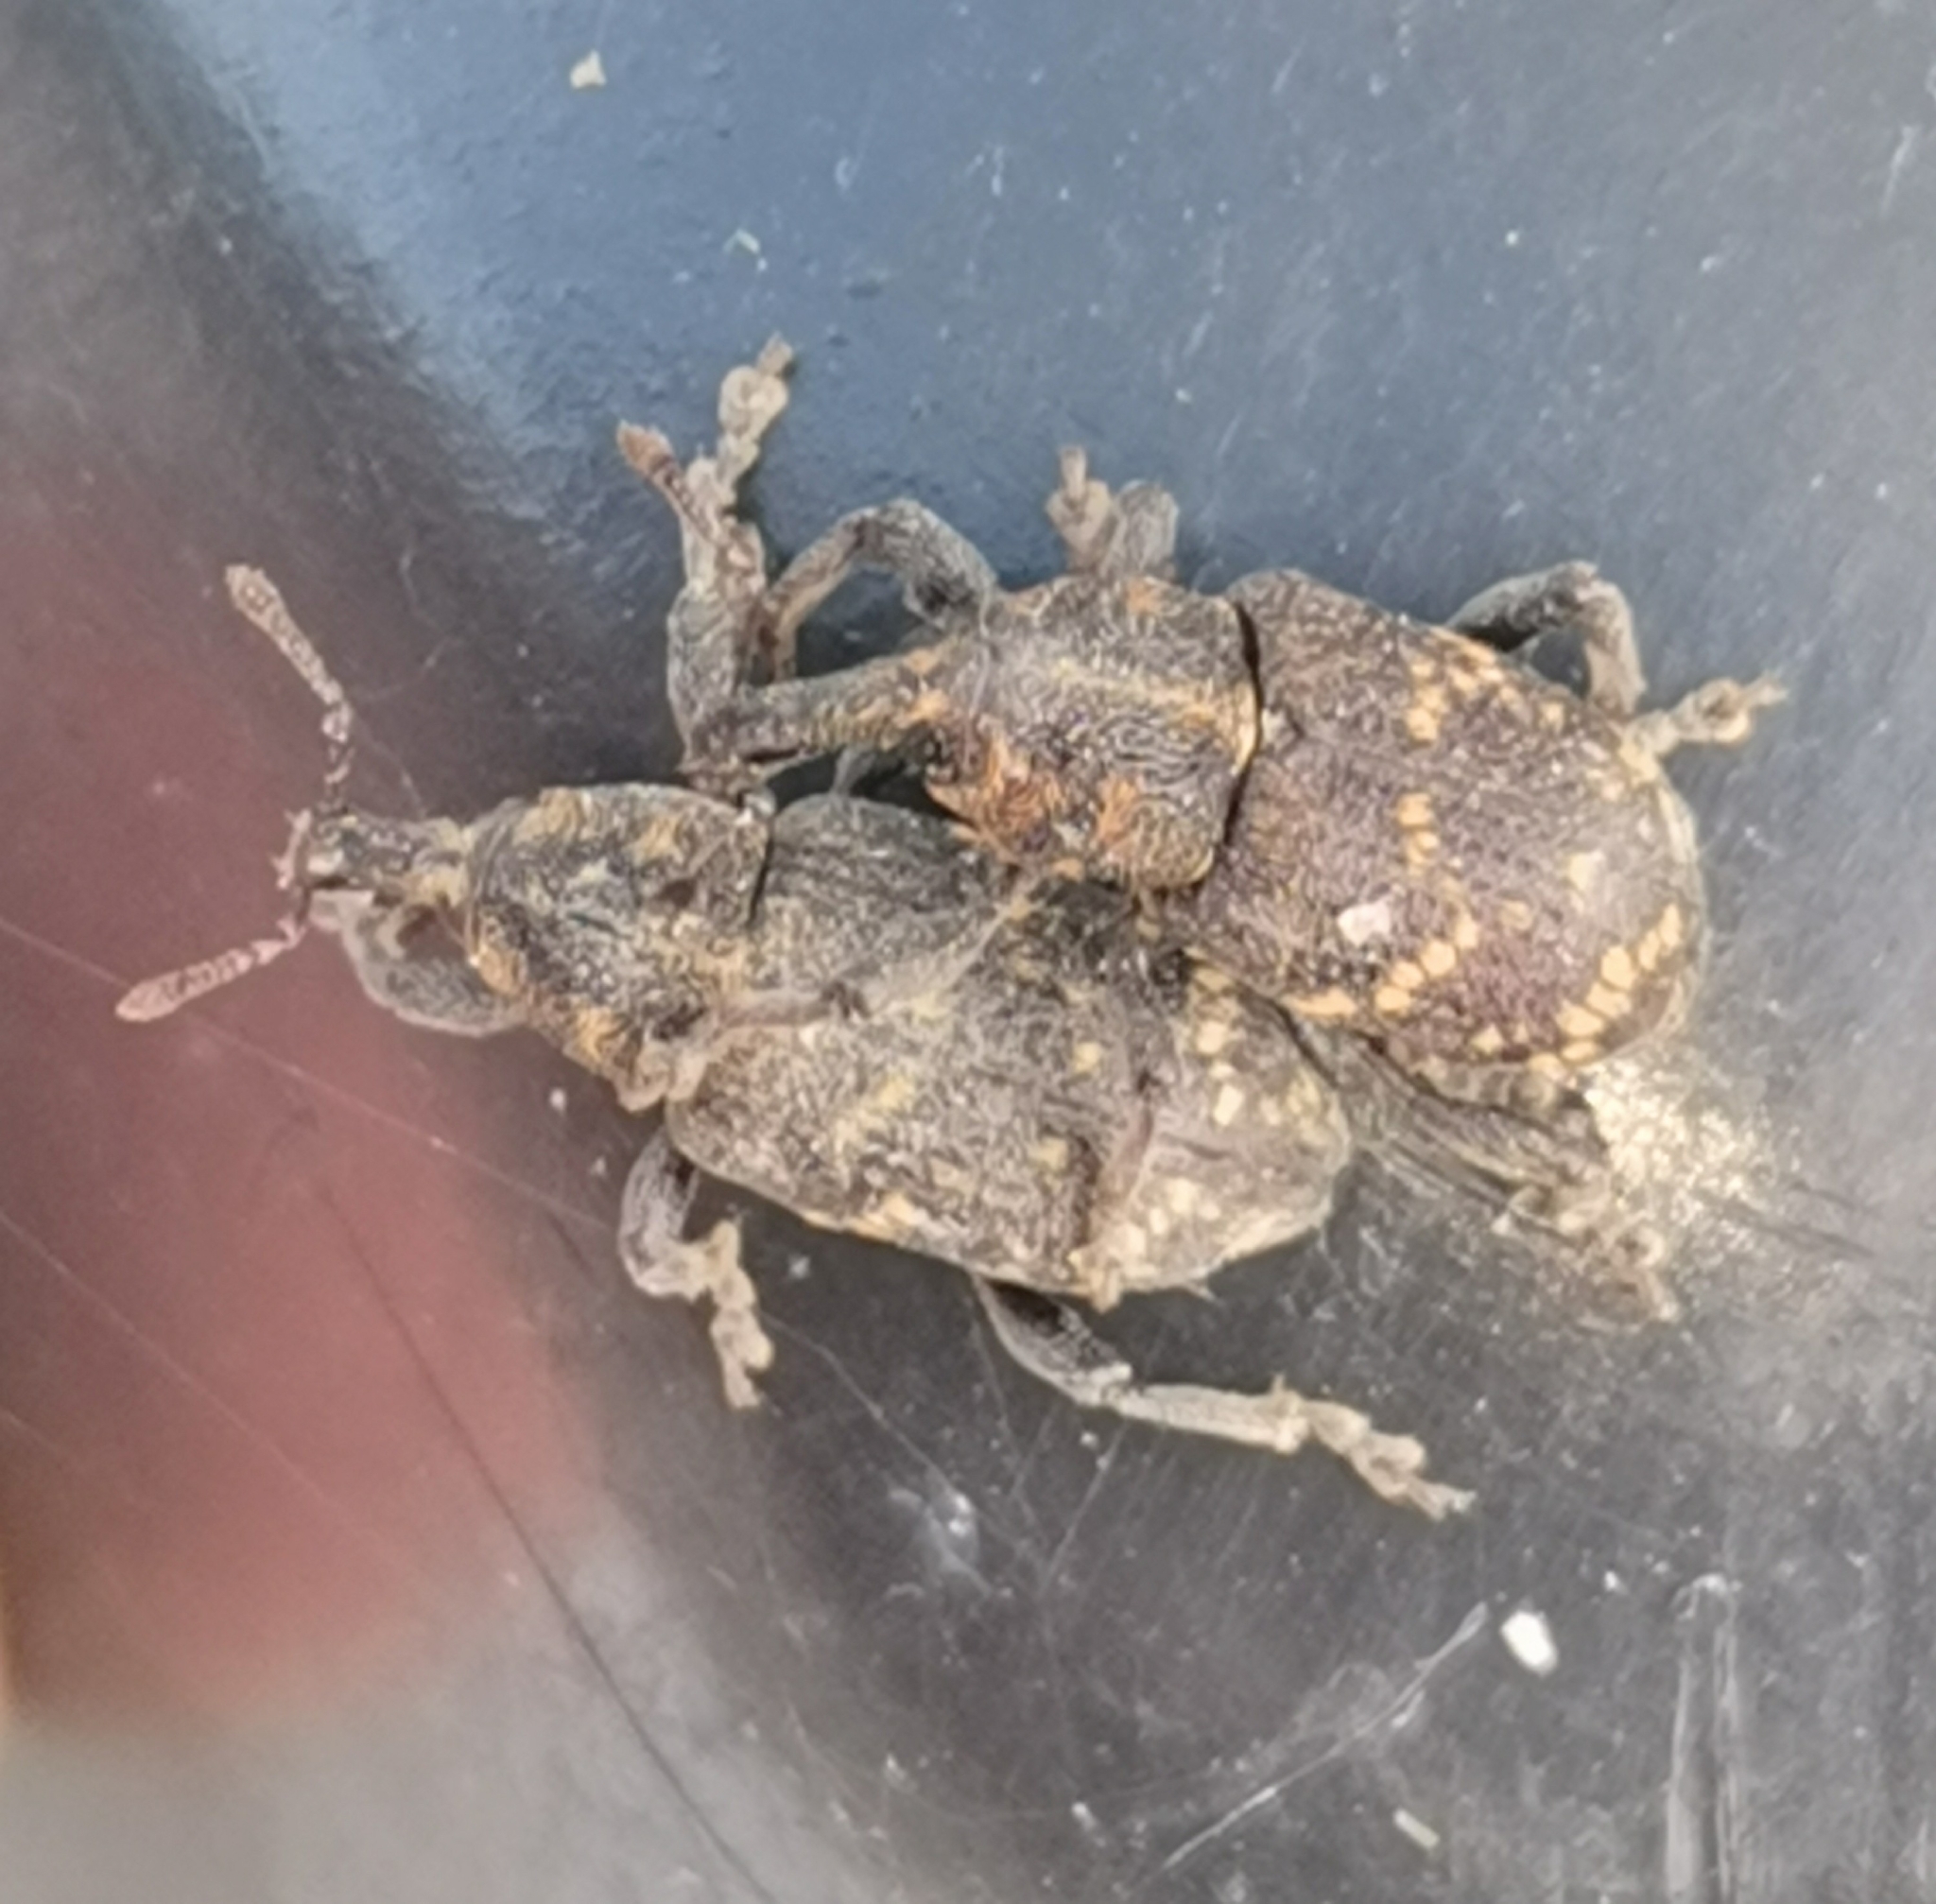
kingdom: Animalia
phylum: Arthropoda
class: Insecta
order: Coleoptera
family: Curculionidae
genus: Hylobius
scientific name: Hylobius abietis
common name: Large pine weevil
